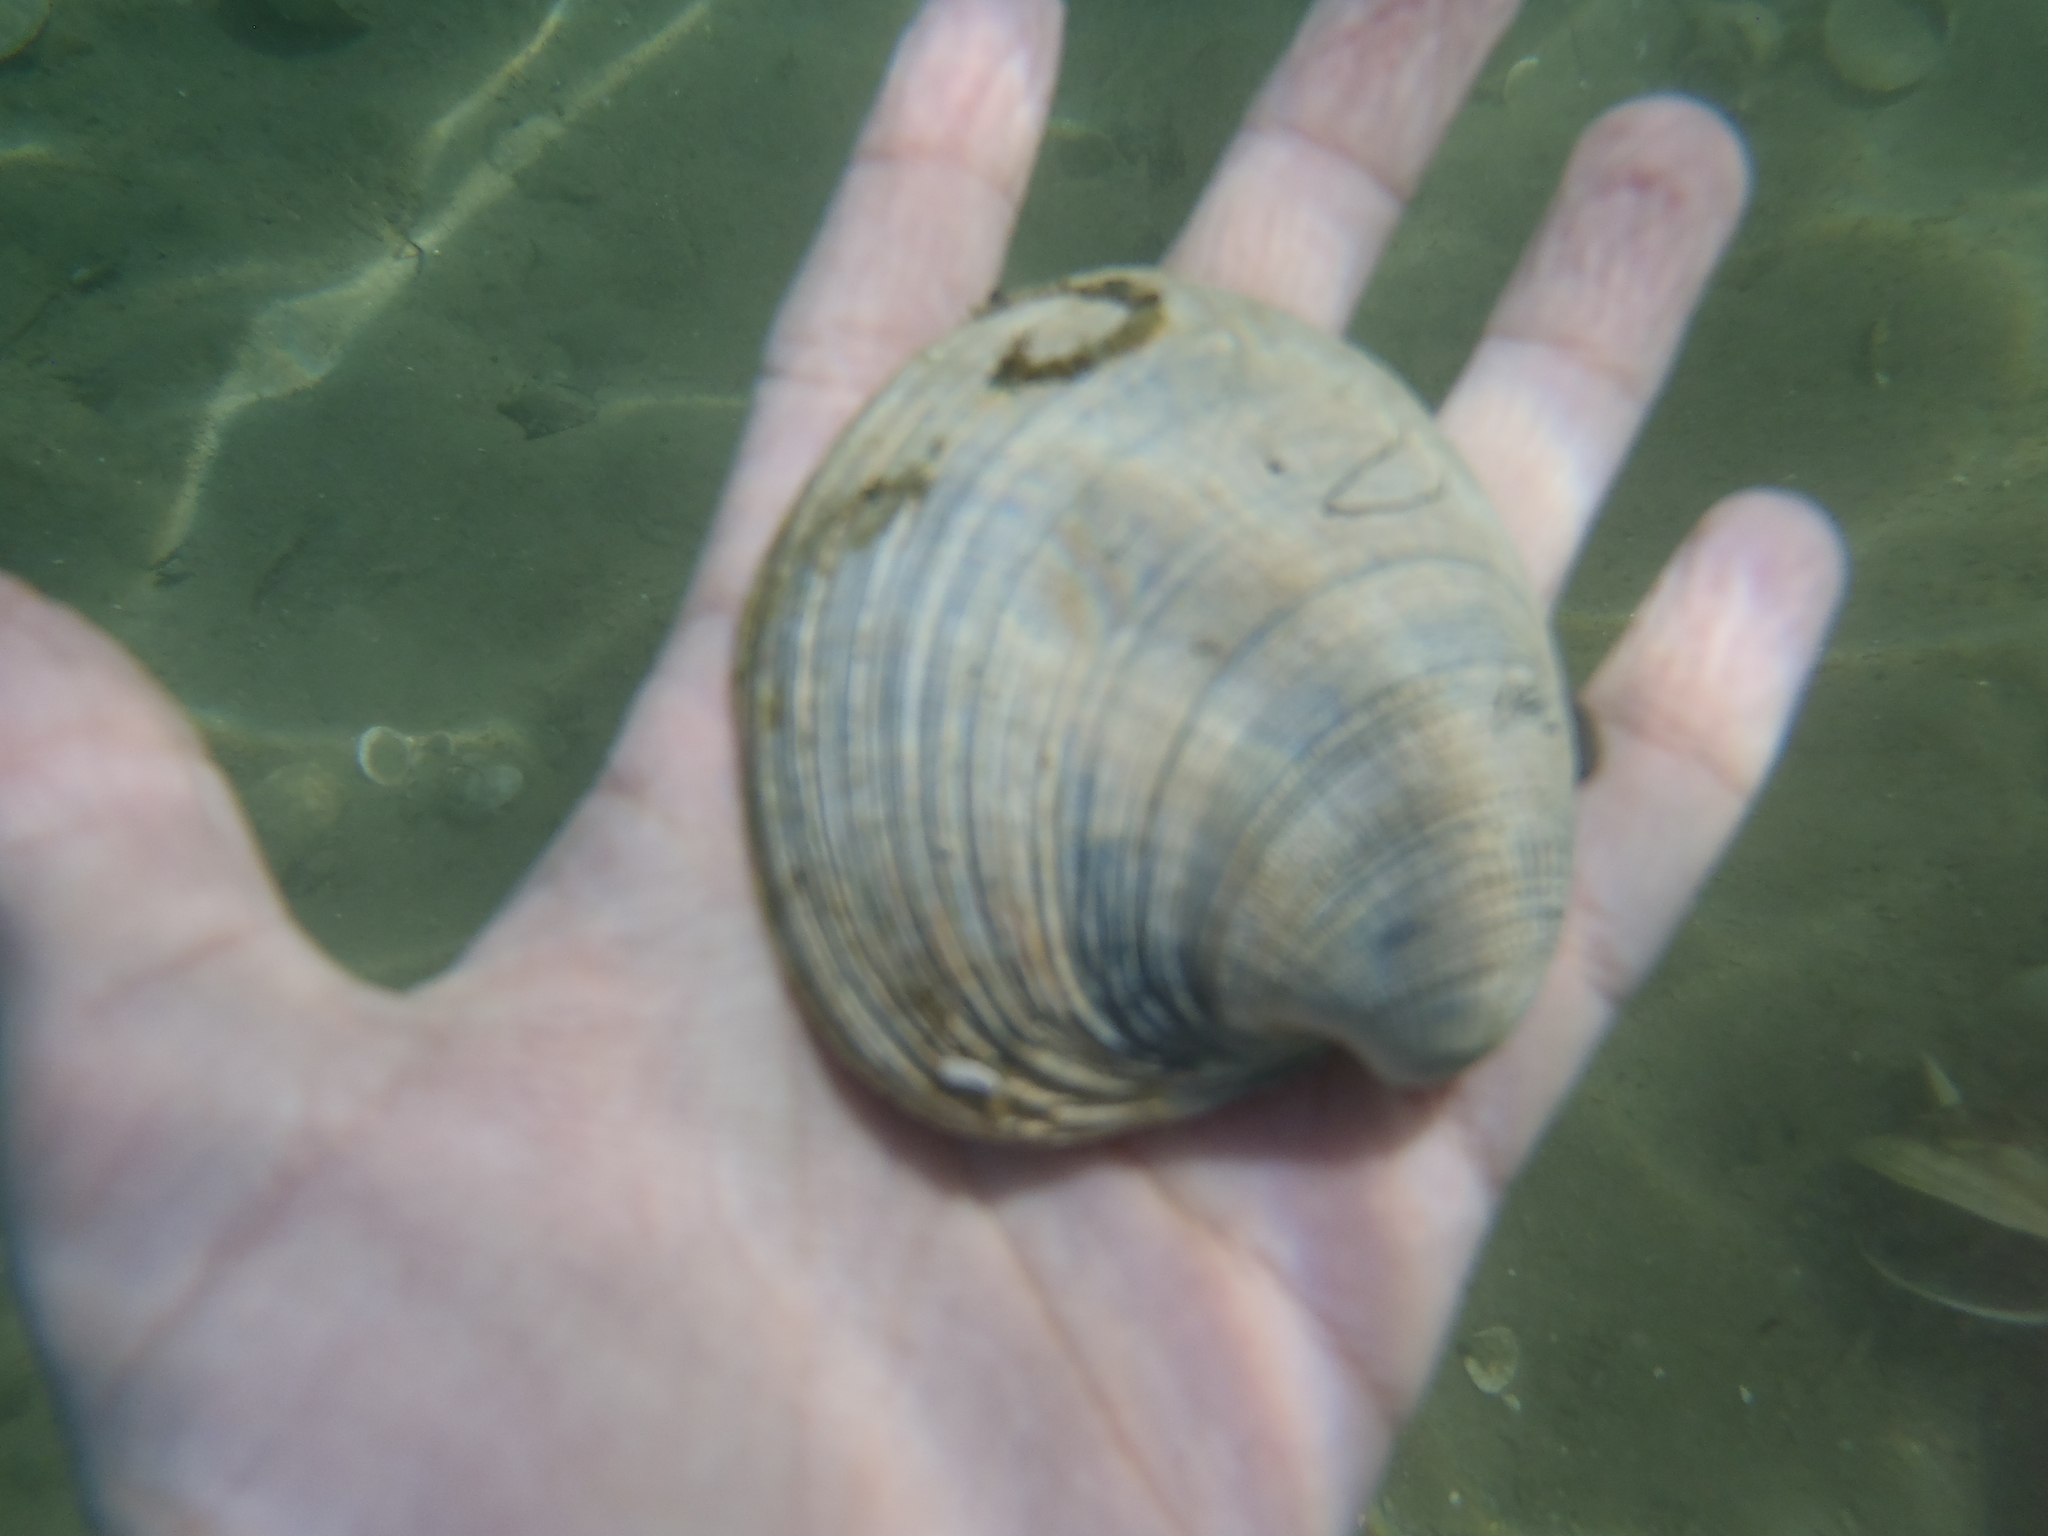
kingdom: Animalia
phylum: Mollusca
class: Bivalvia
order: Venerida
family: Veneridae
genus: Austrovenus
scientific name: Austrovenus stutchburyi
